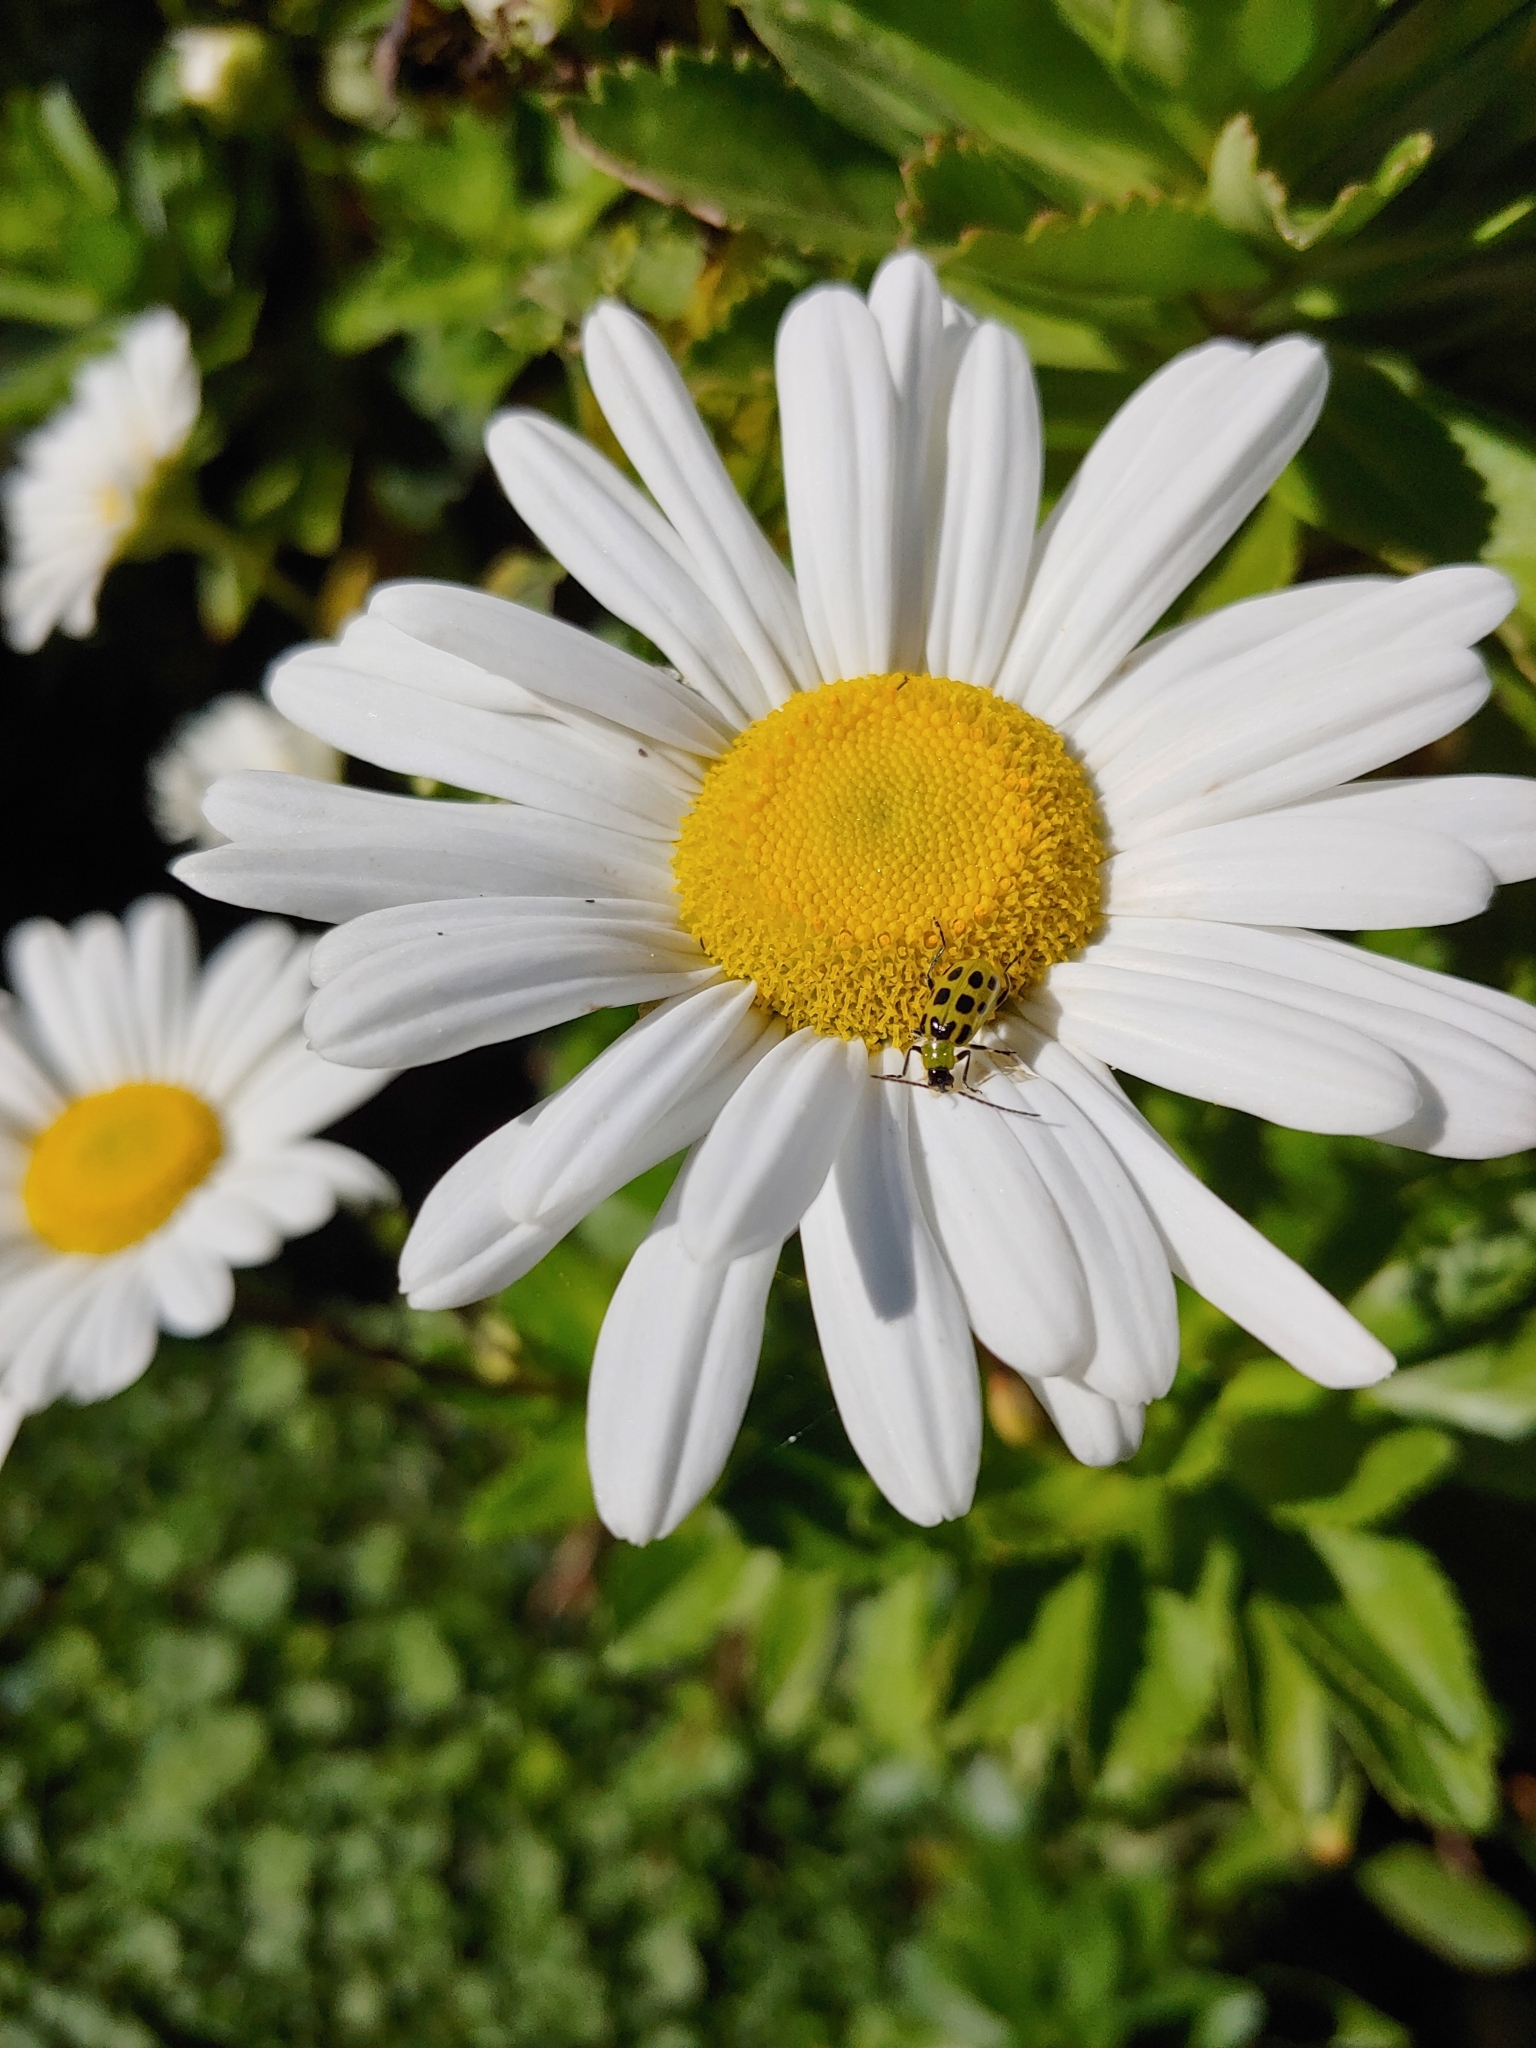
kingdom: Animalia
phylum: Arthropoda
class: Insecta
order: Coleoptera
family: Chrysomelidae
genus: Diabrotica
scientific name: Diabrotica undecimpunctata
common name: Spotted cucumber beetle
